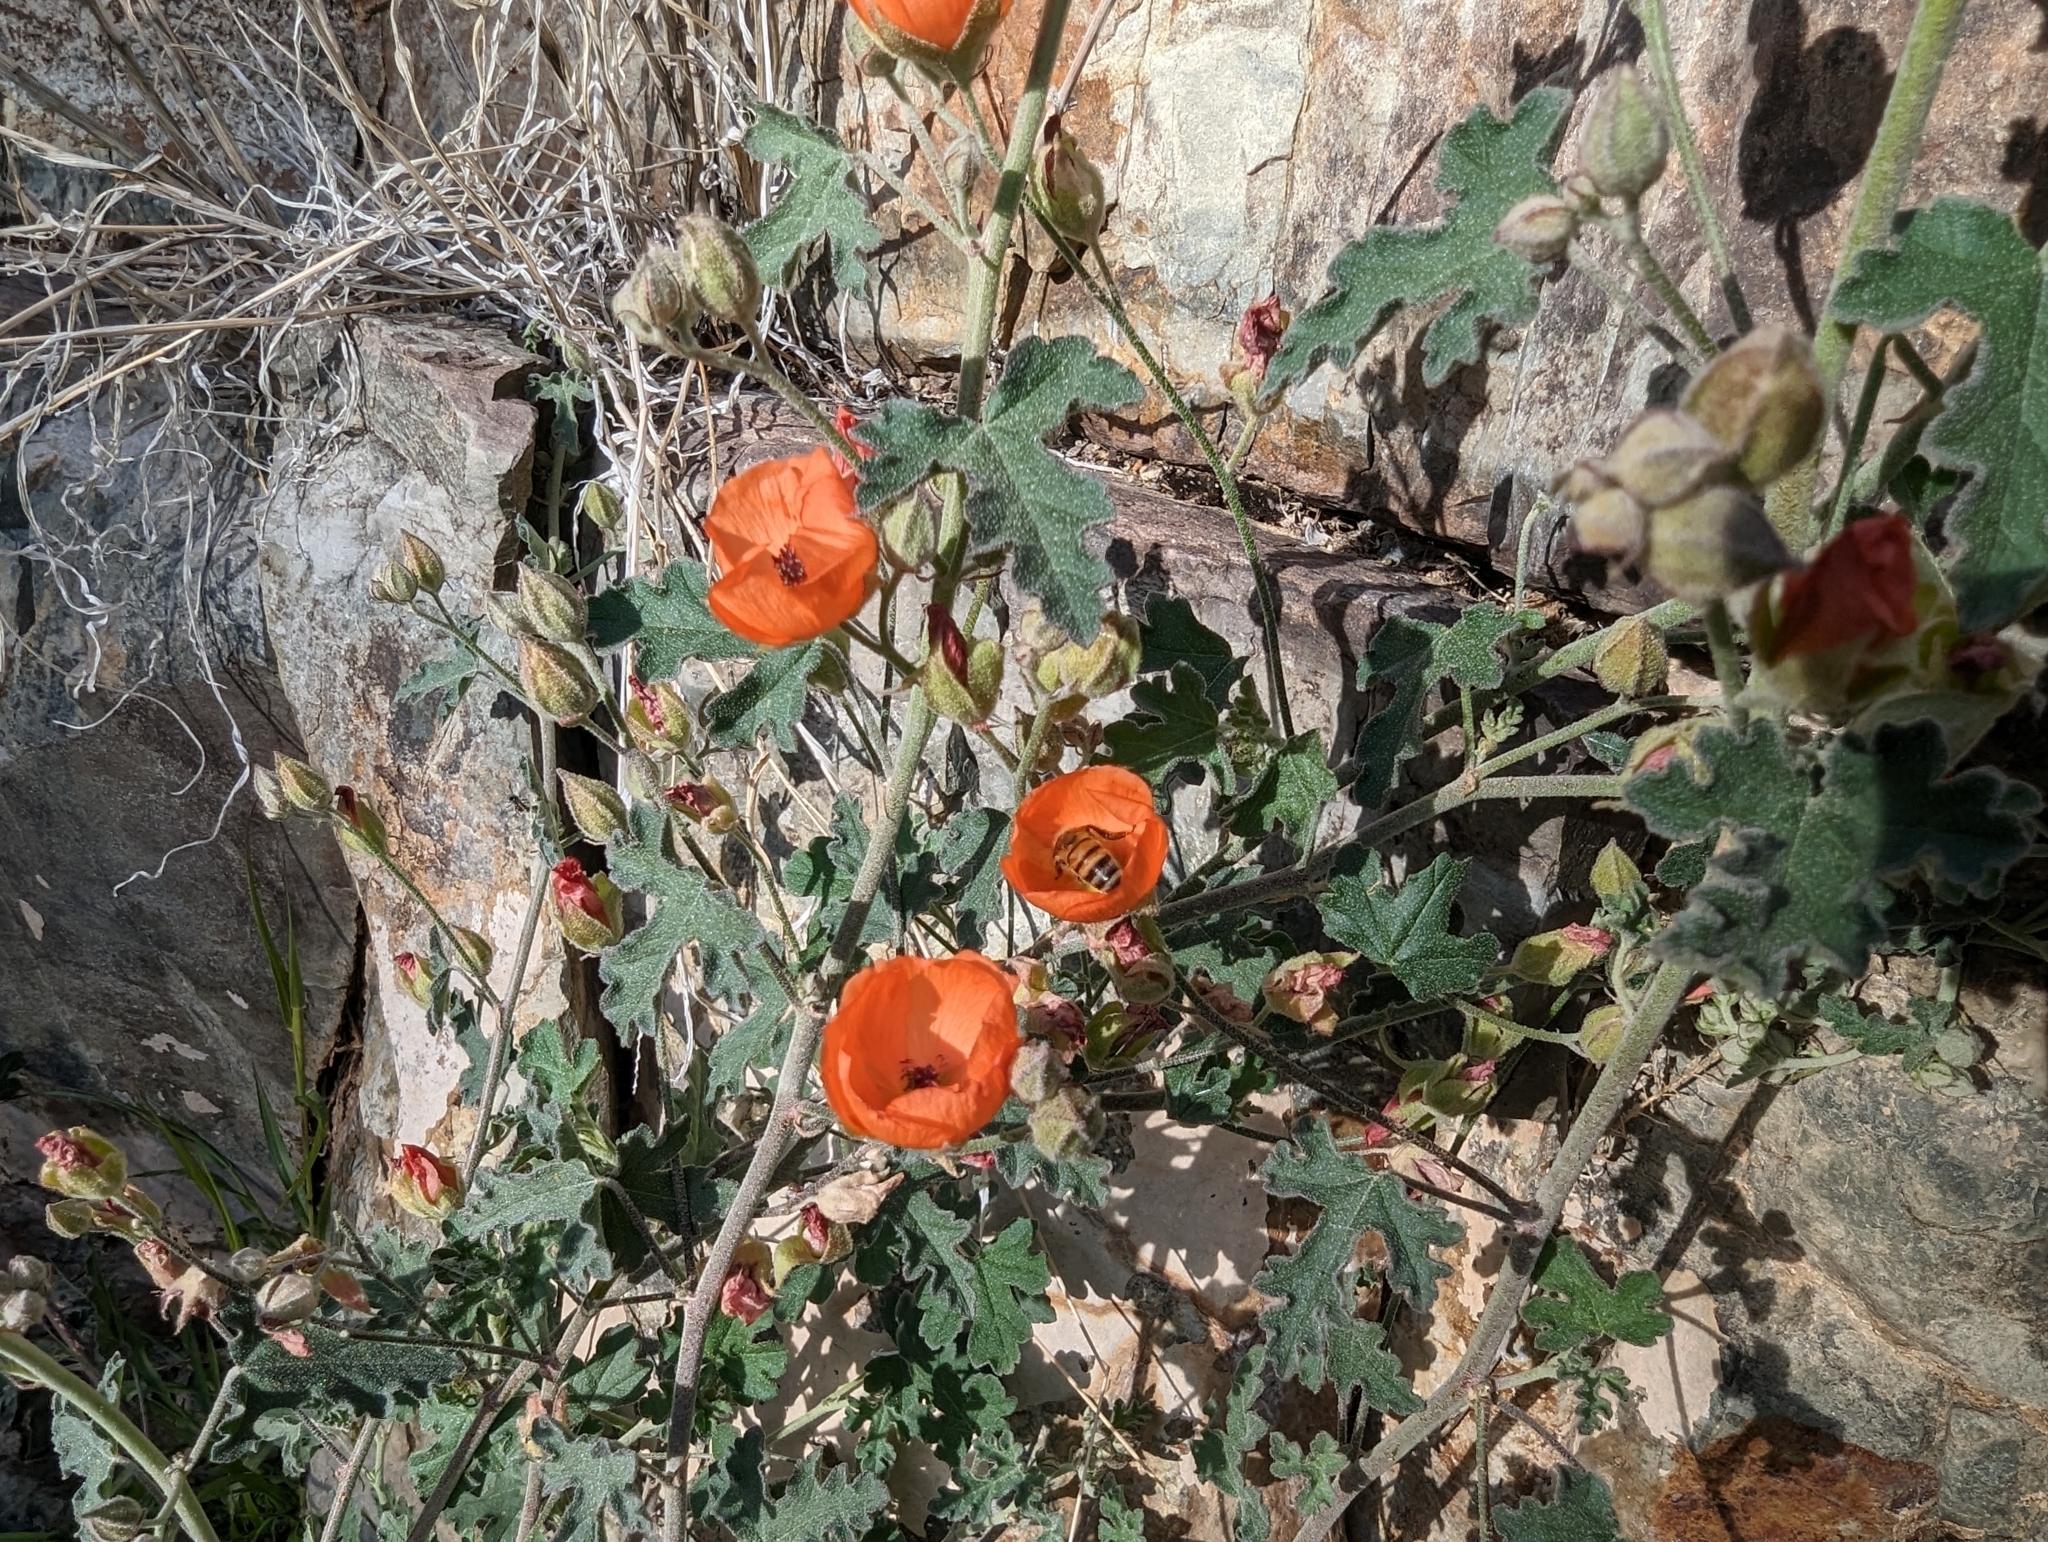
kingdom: Animalia
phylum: Arthropoda
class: Insecta
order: Hymenoptera
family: Apidae
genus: Apis
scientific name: Apis mellifera
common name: Honey bee
